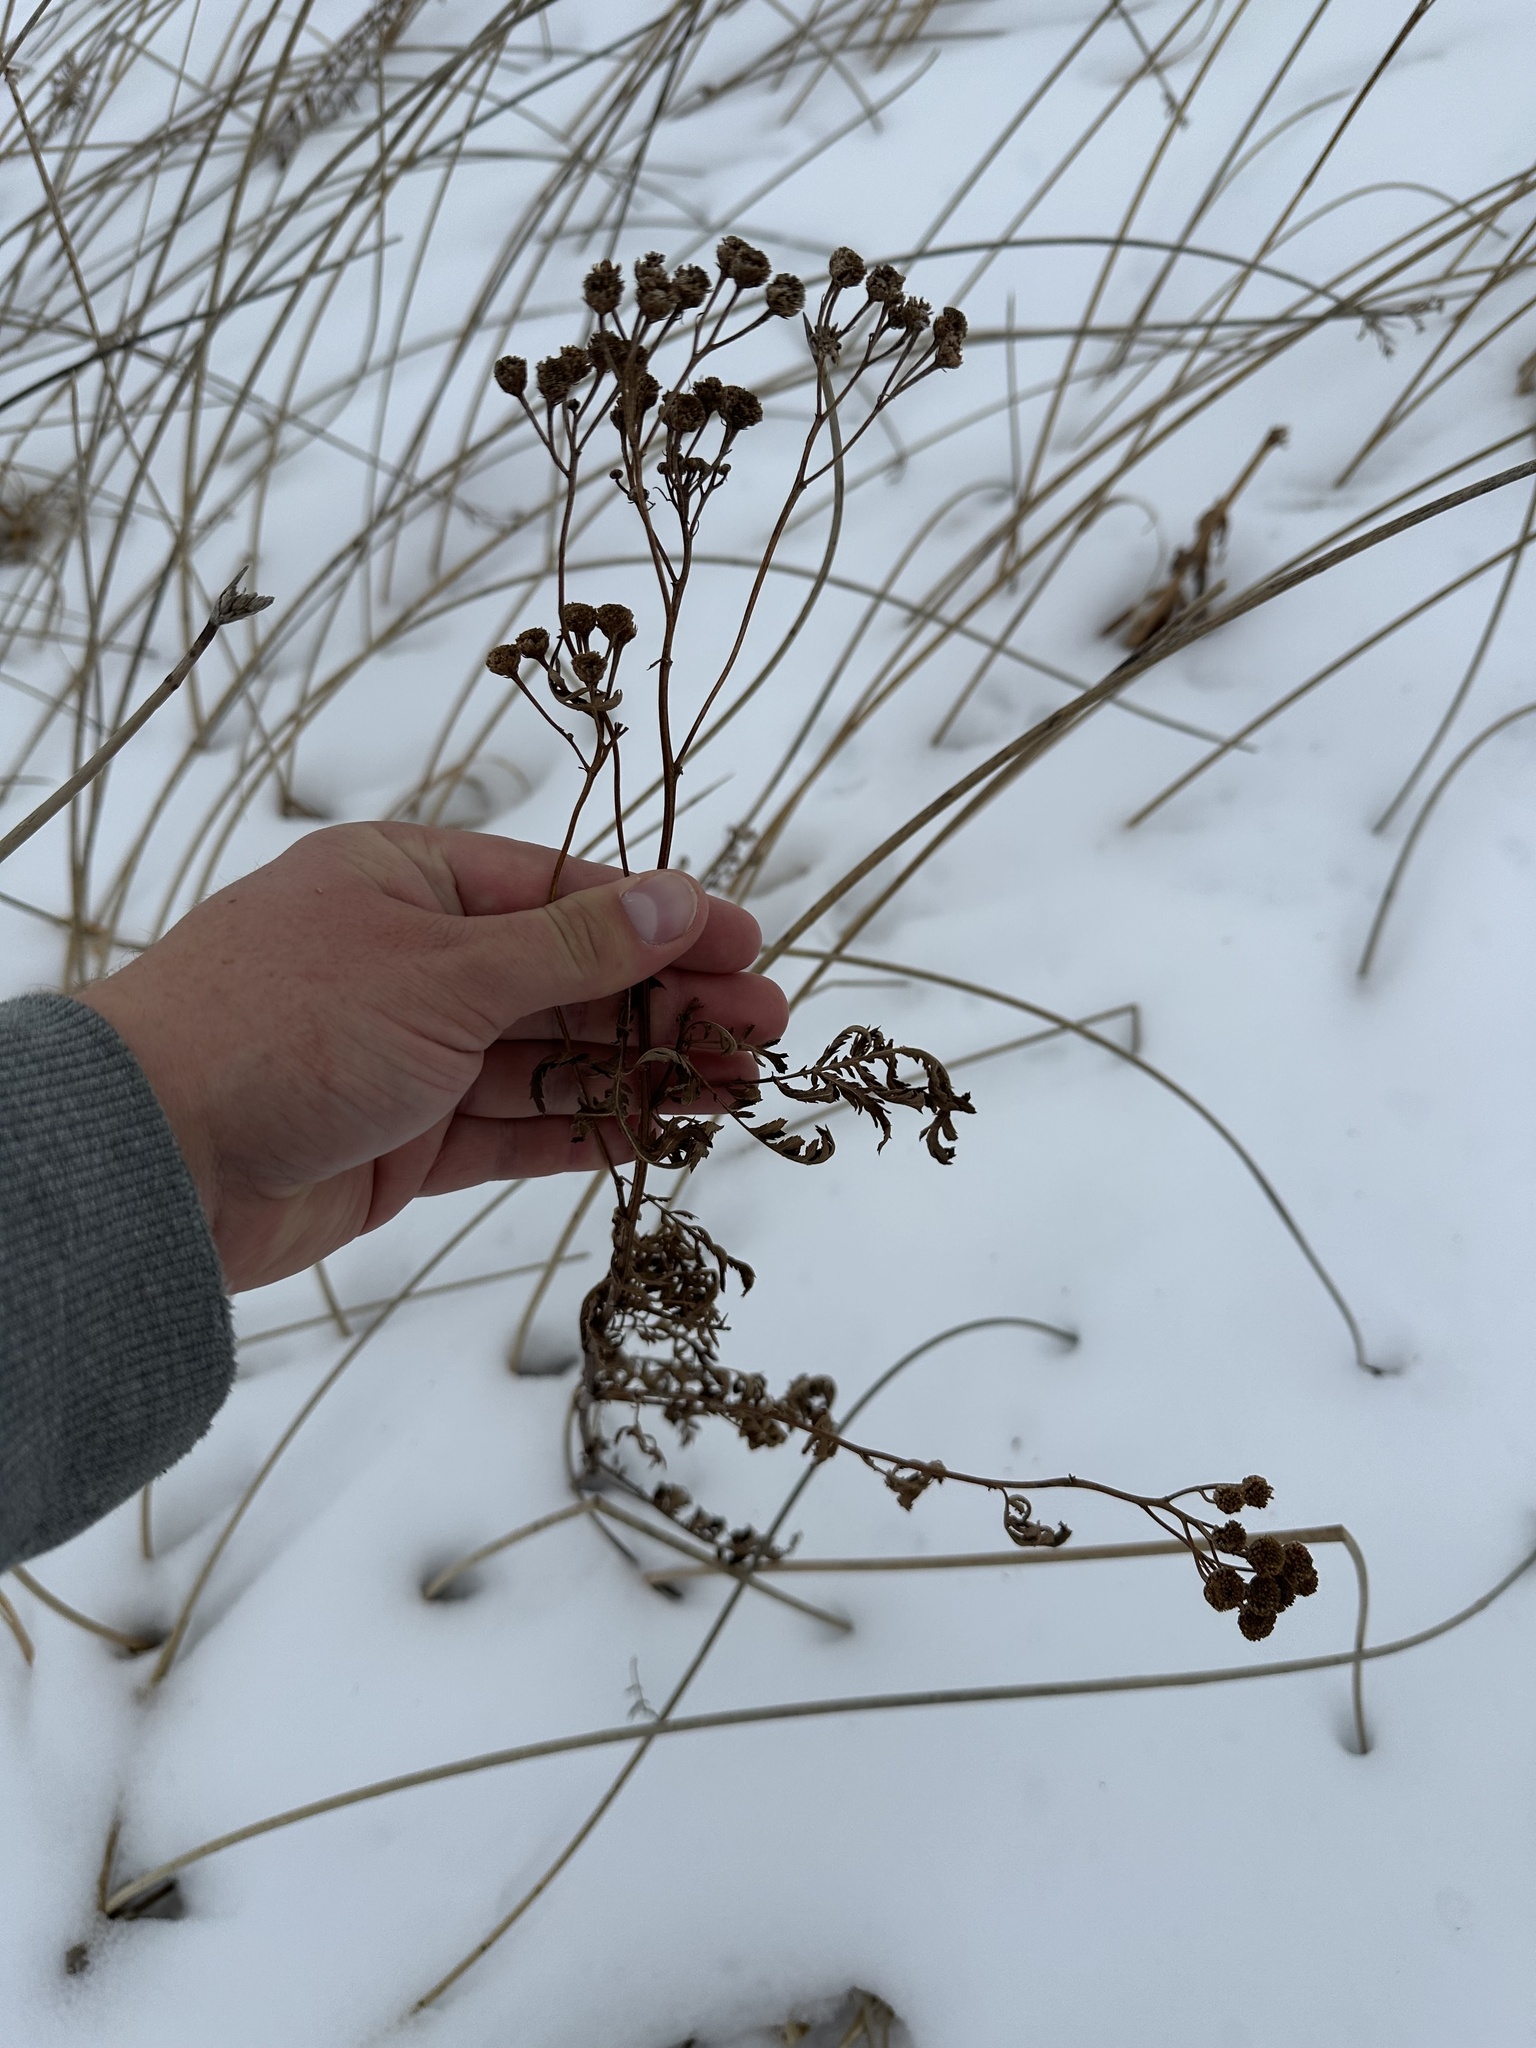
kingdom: Plantae
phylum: Tracheophyta
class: Magnoliopsida
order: Asterales
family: Asteraceae
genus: Tanacetum
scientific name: Tanacetum vulgare
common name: Common tansy
